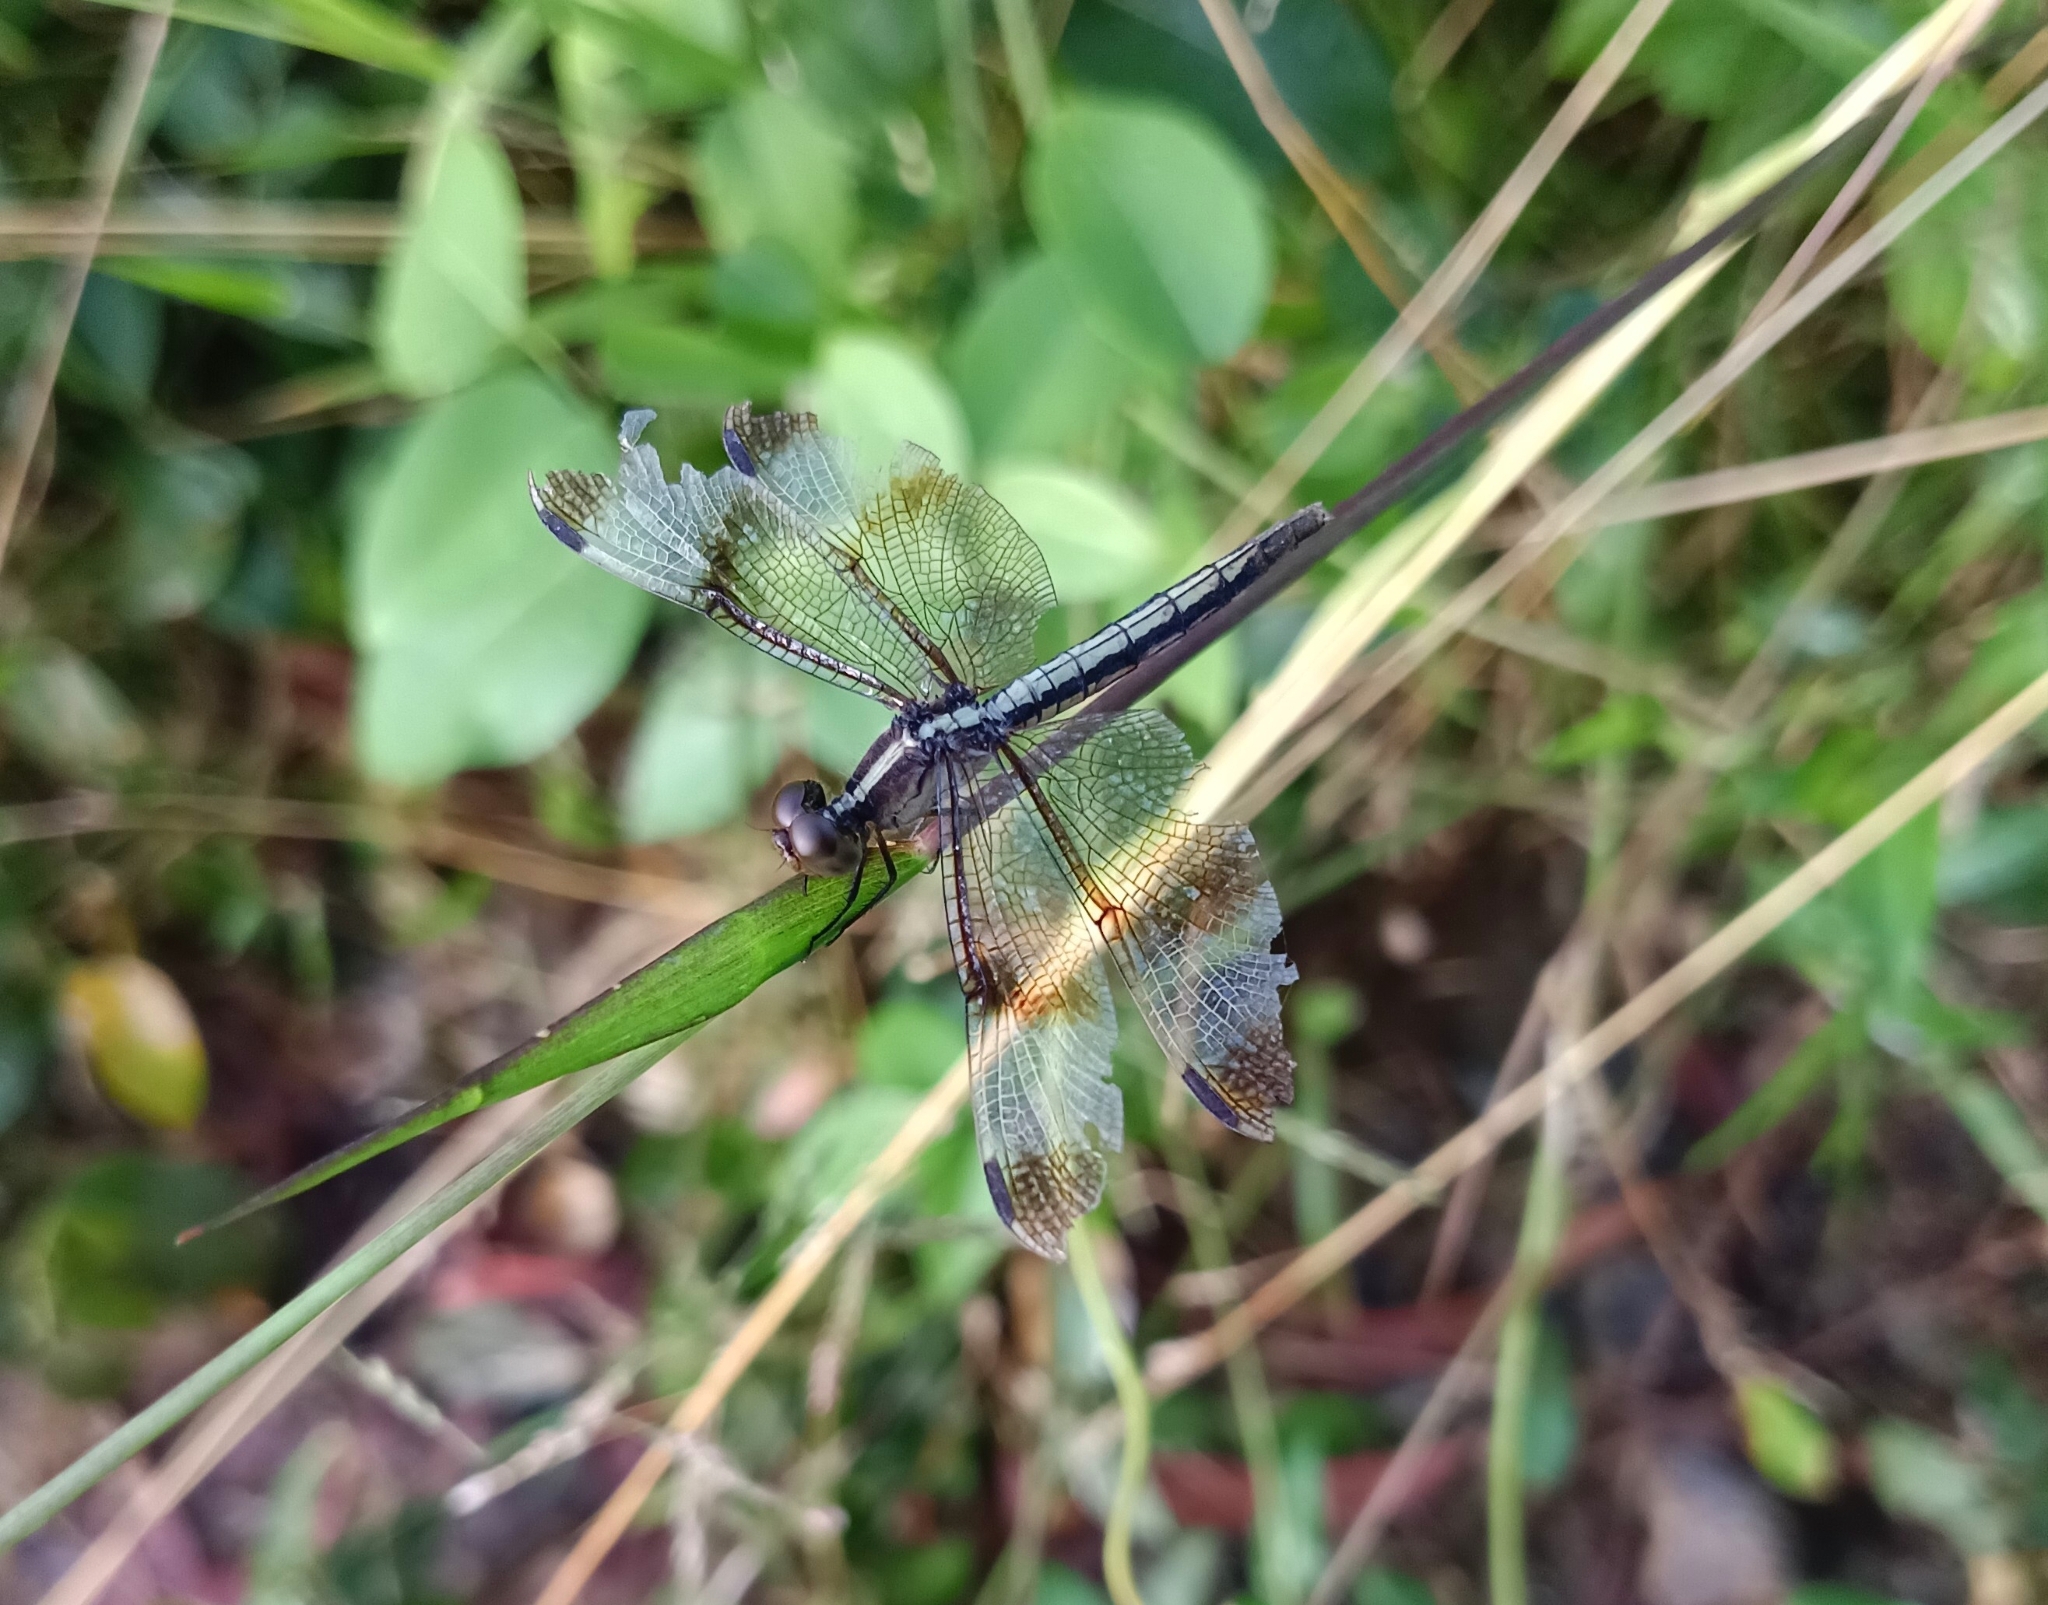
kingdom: Animalia
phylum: Arthropoda
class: Insecta
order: Odonata
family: Libellulidae
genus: Neurothemis
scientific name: Neurothemis tullia
